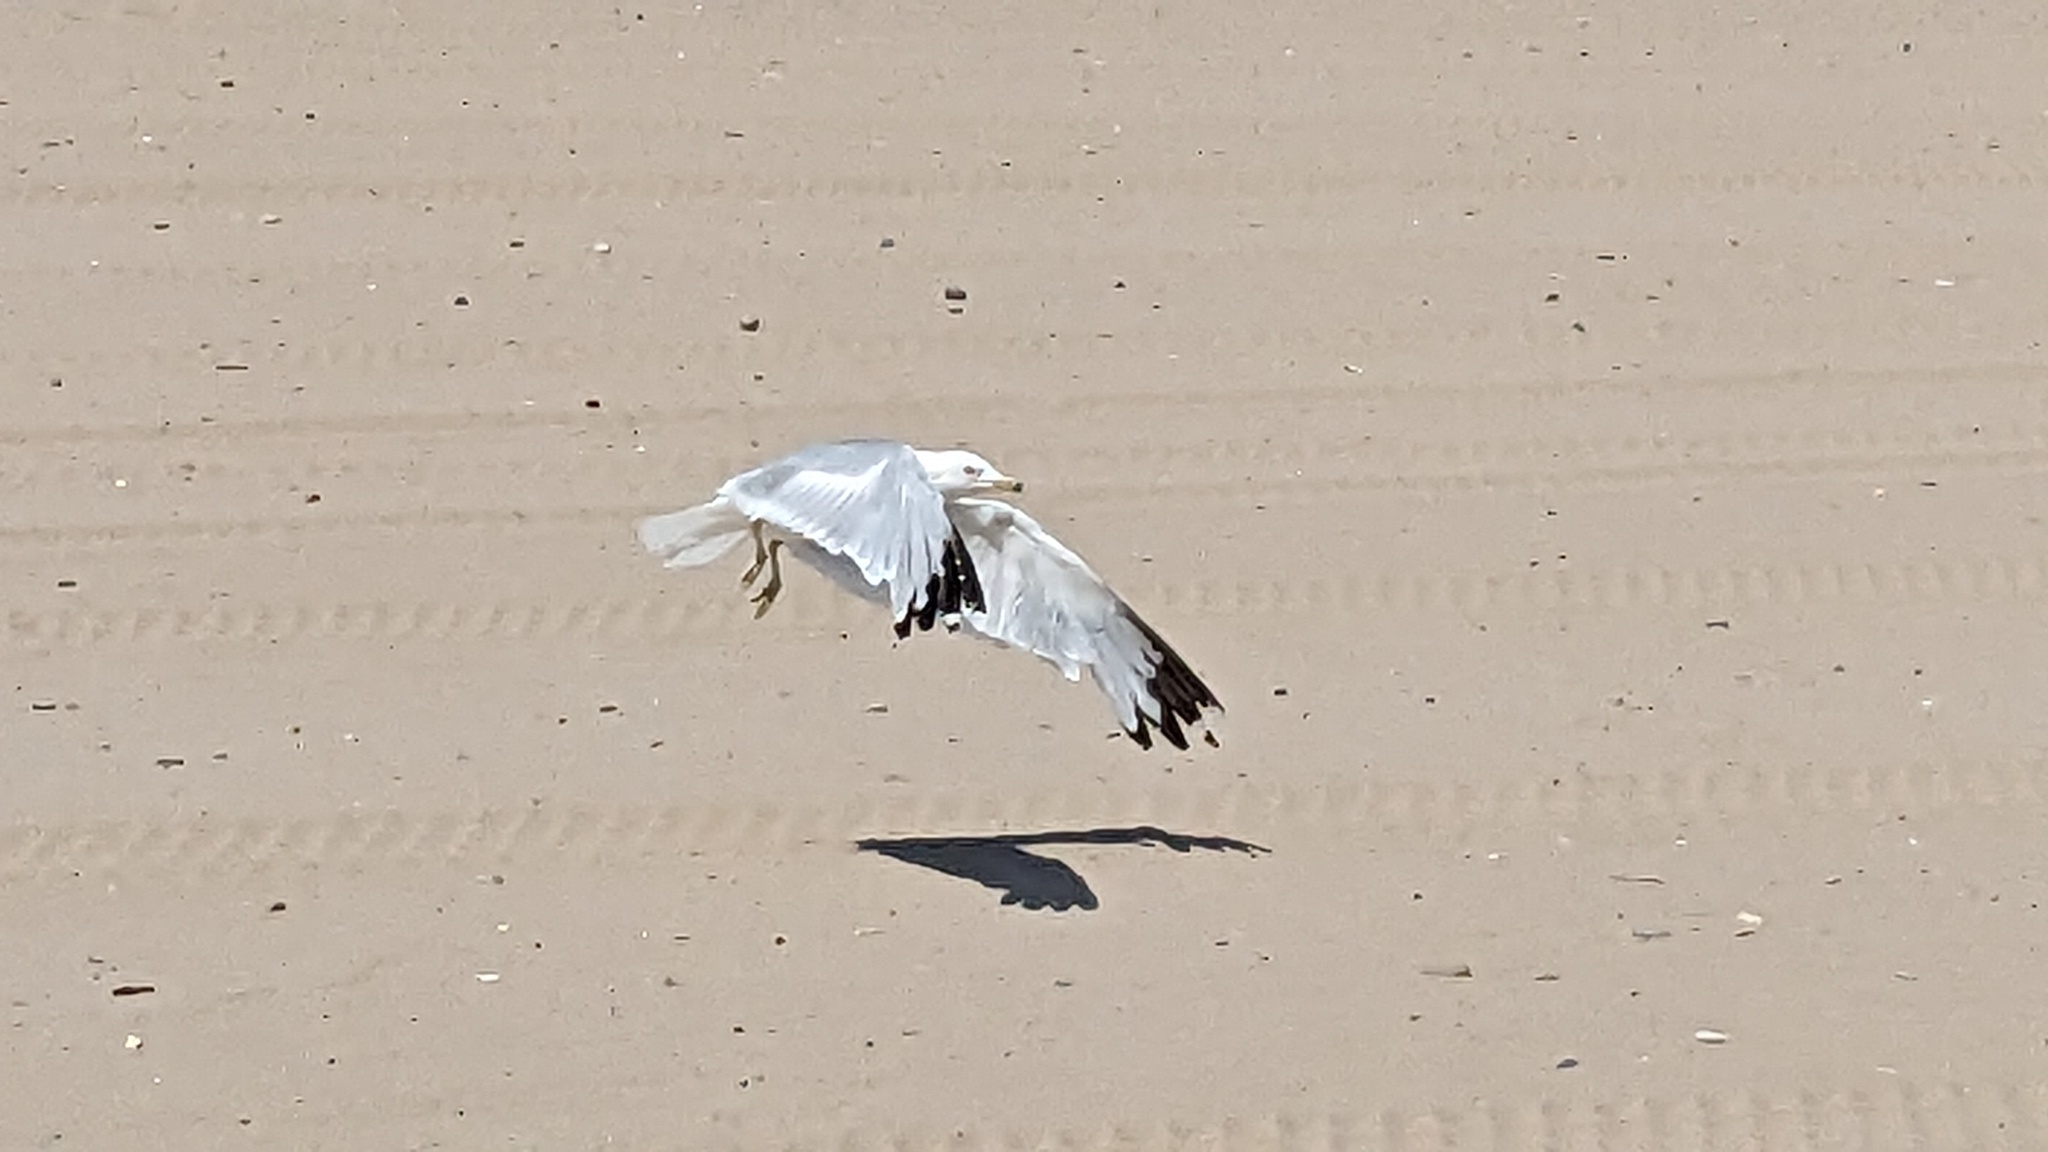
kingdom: Animalia
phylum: Chordata
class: Aves
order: Charadriiformes
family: Laridae
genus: Larus
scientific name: Larus delawarensis
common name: Ring-billed gull
